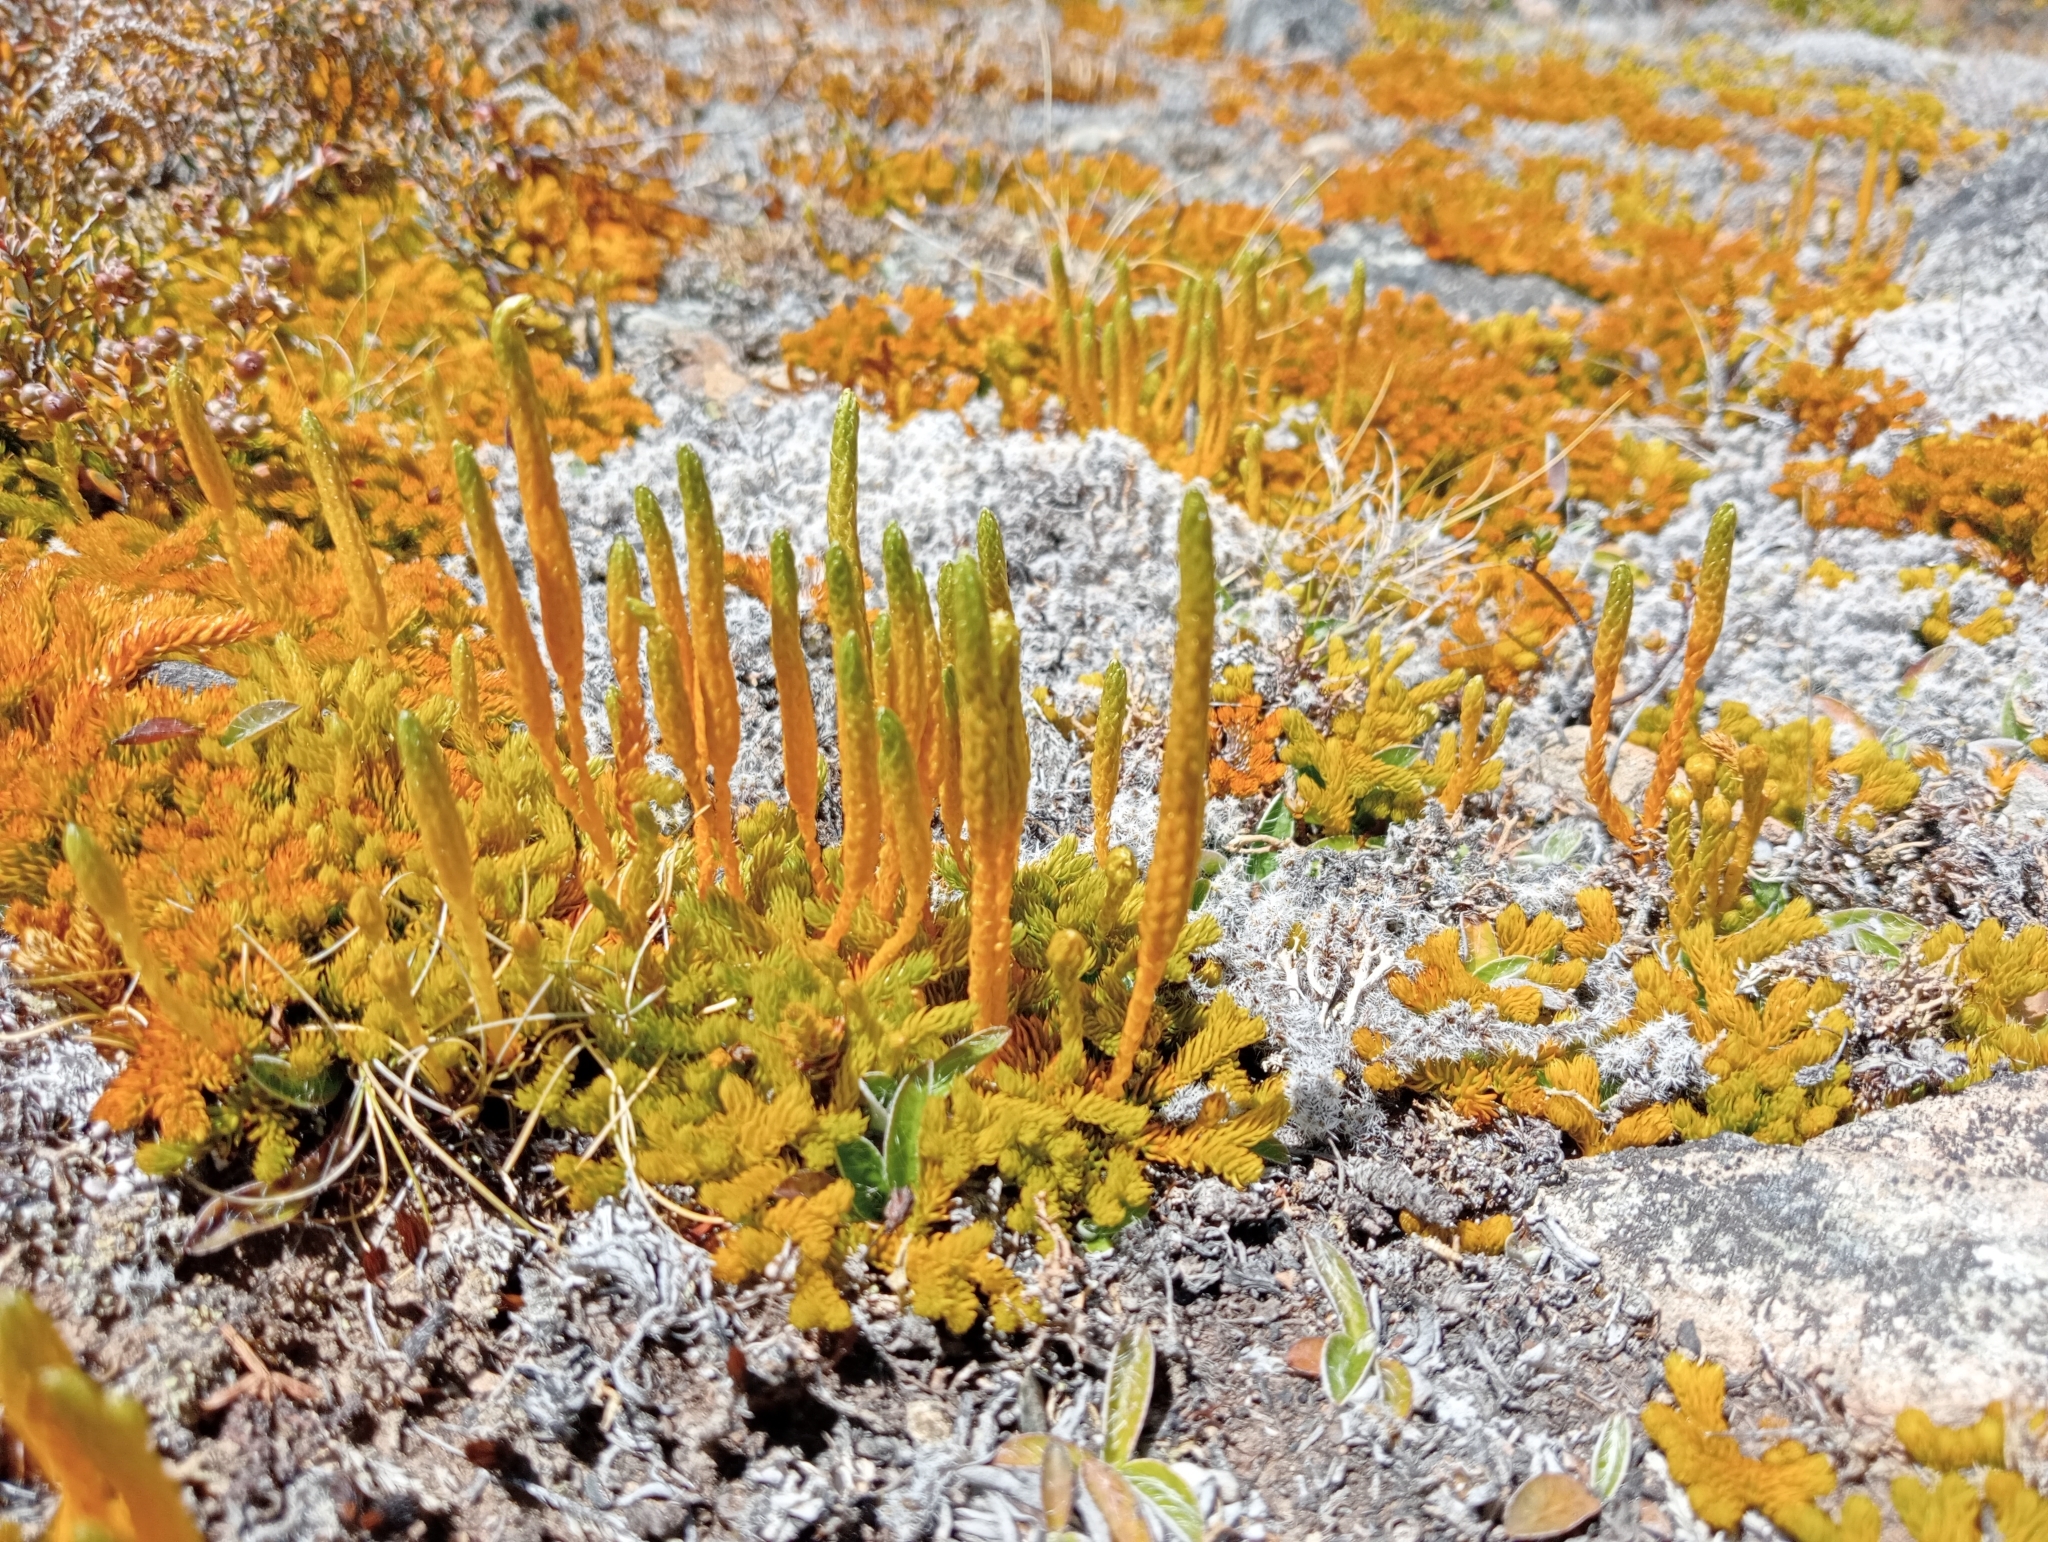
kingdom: Plantae
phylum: Tracheophyta
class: Lycopodiopsida
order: Lycopodiales
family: Lycopodiaceae
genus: Austrolycopodium
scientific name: Austrolycopodium fastigiatum
